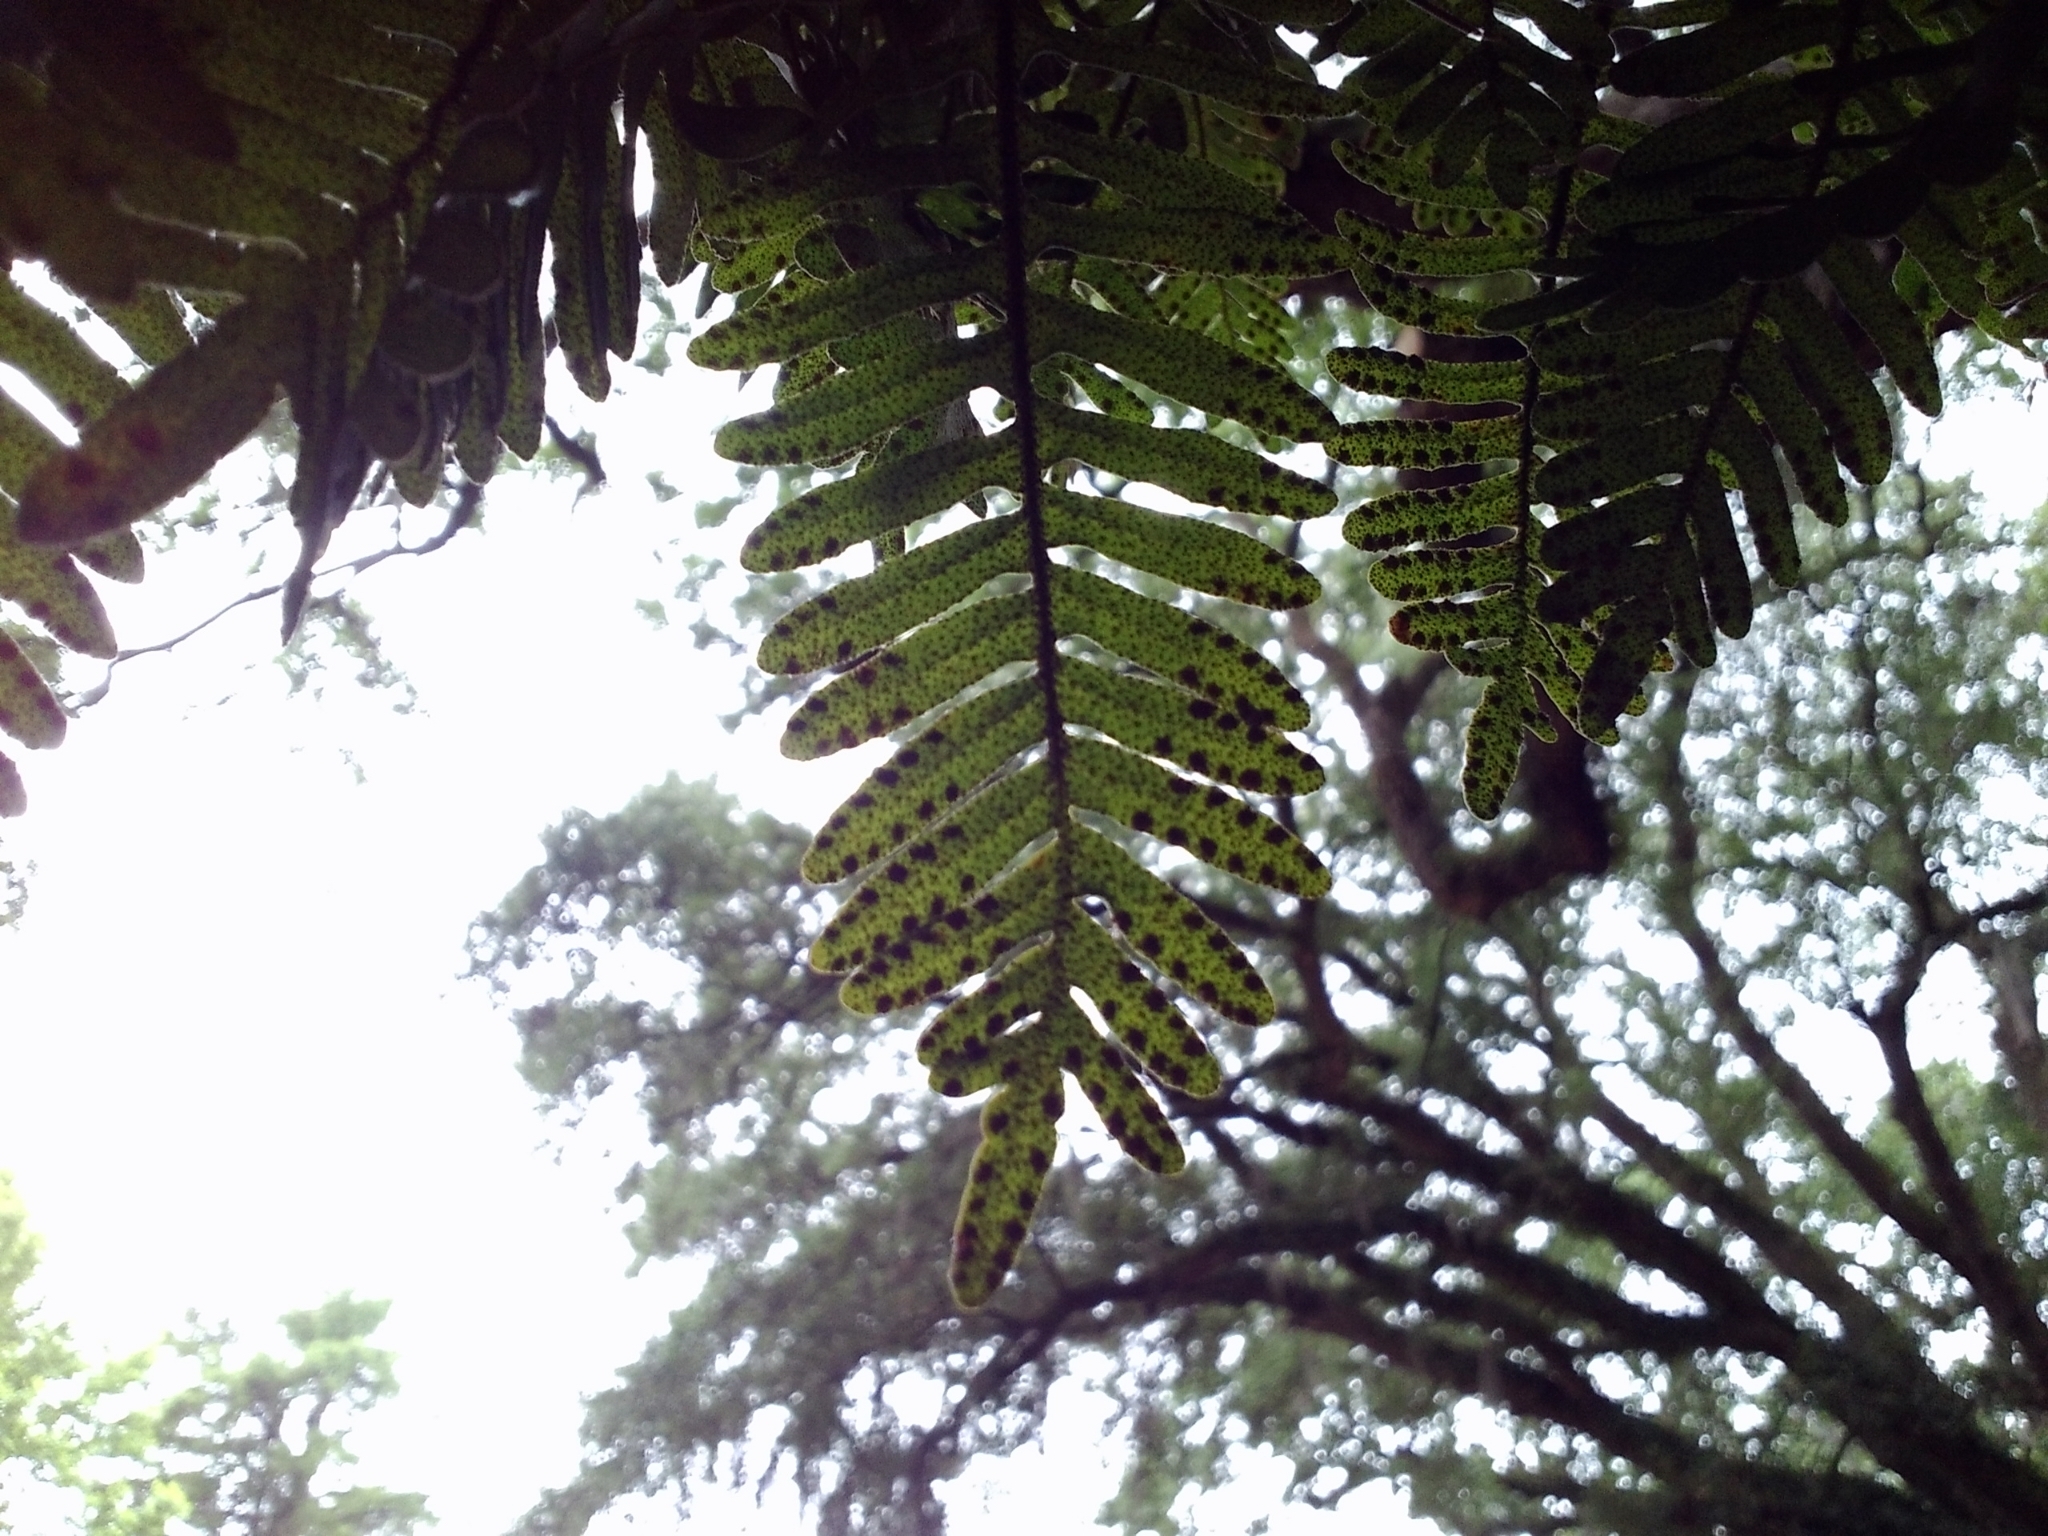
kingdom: Plantae
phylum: Tracheophyta
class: Polypodiopsida
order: Polypodiales
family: Polypodiaceae
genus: Pleopeltis
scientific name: Pleopeltis michauxiana
